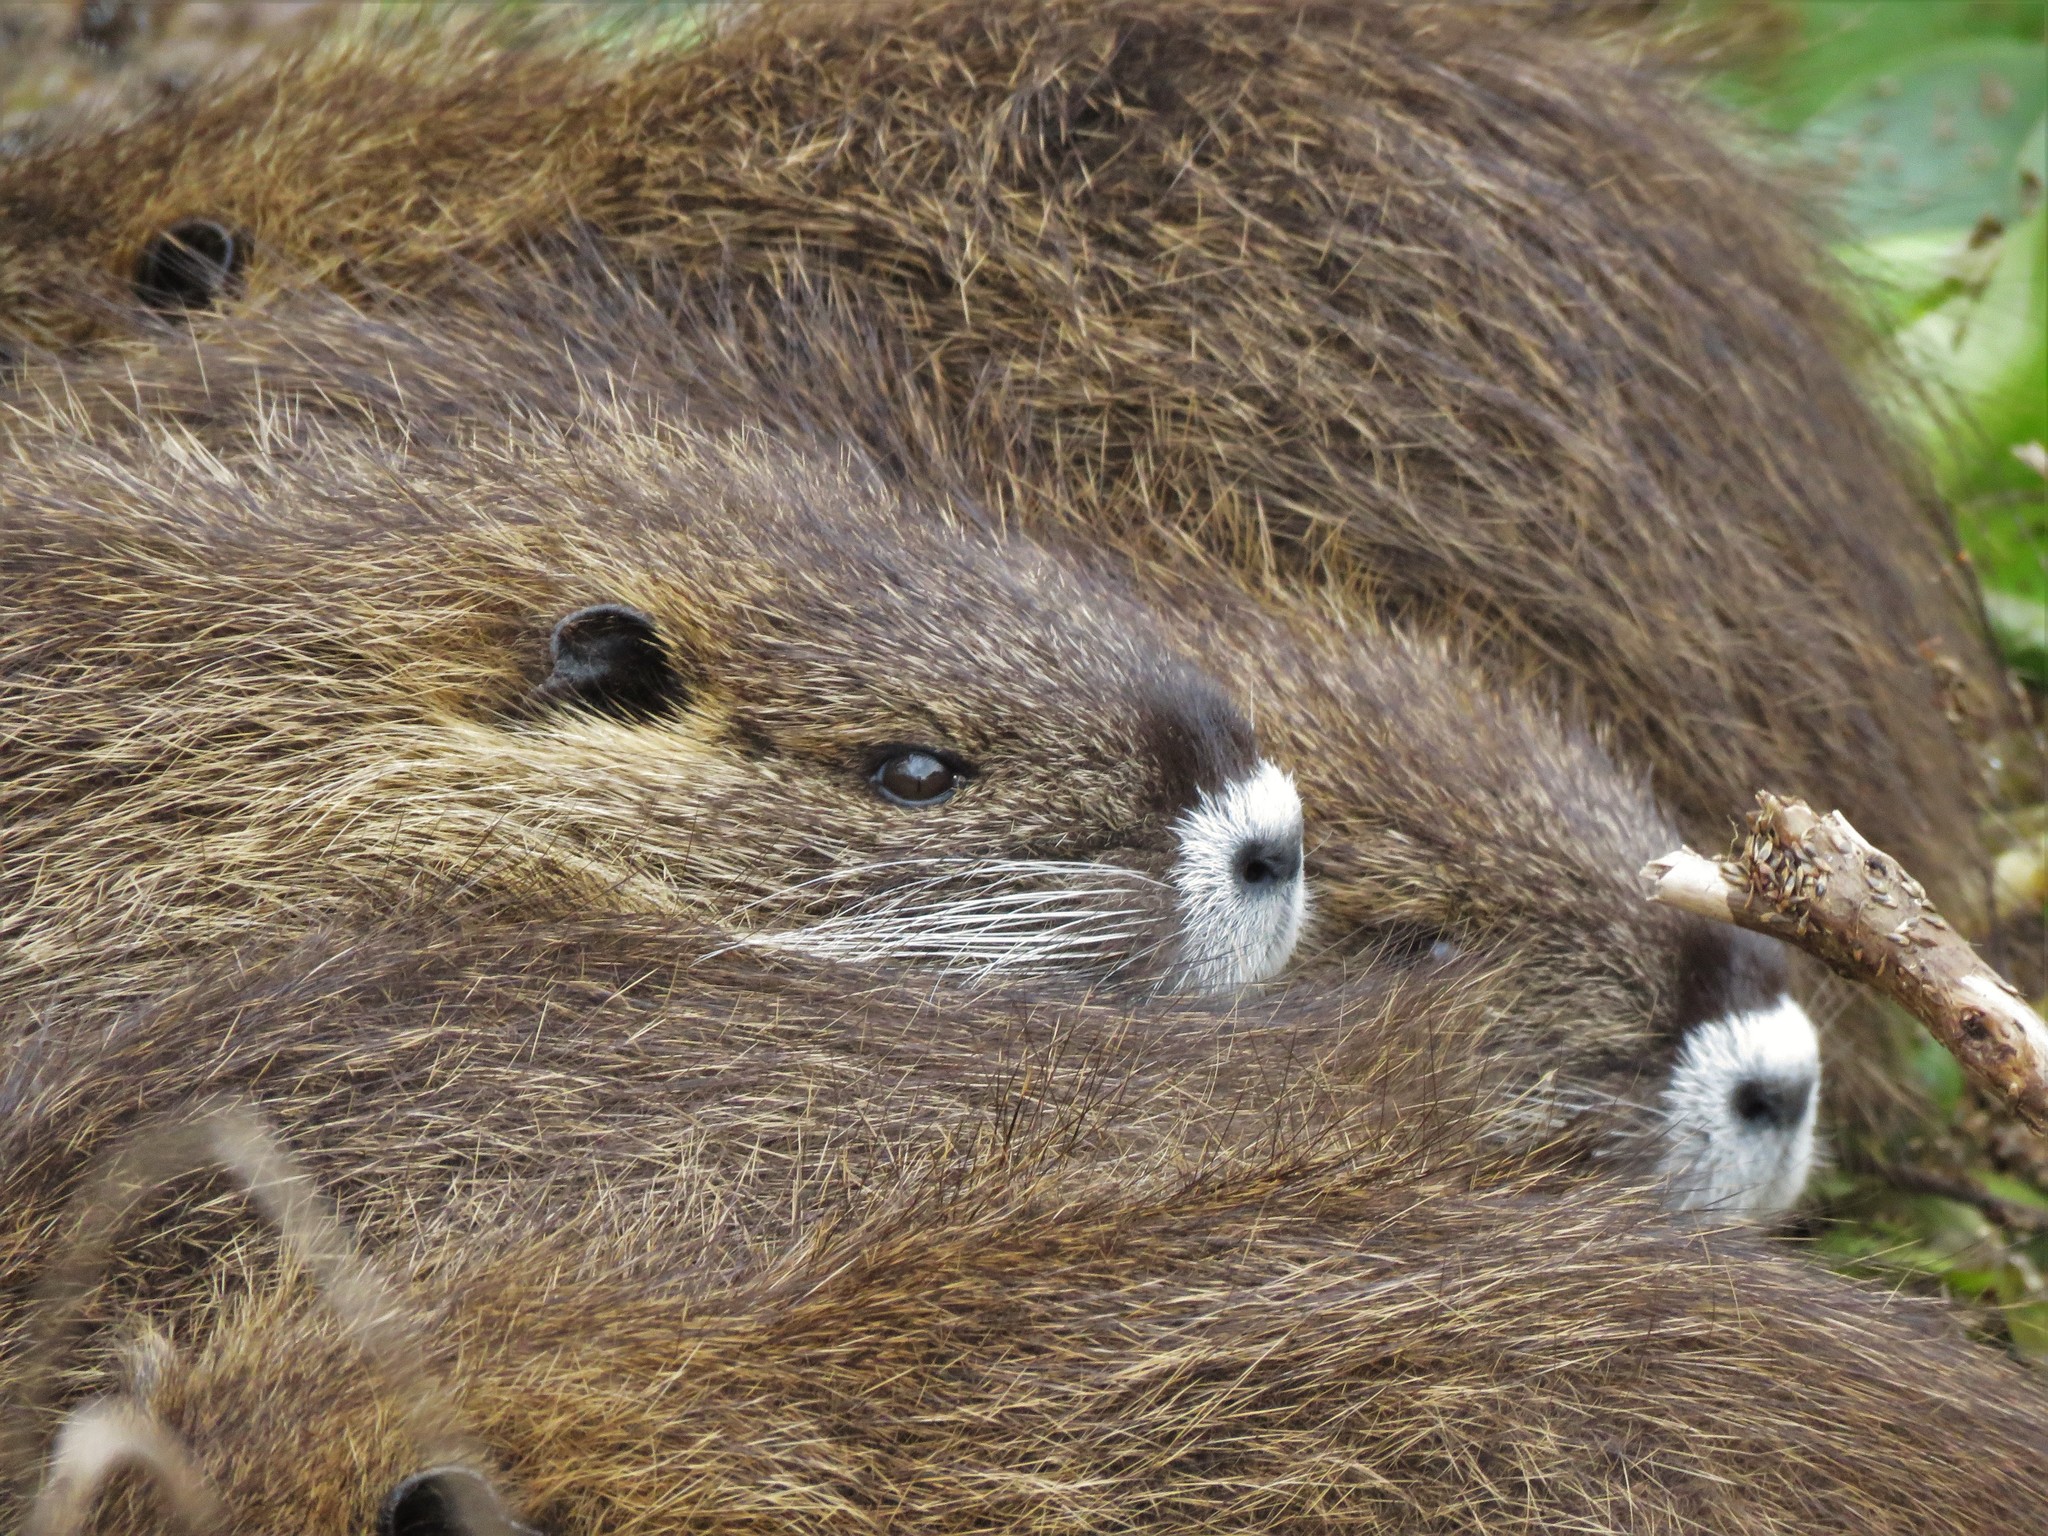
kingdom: Animalia
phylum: Chordata
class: Mammalia
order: Rodentia
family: Myocastoridae
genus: Myocastor
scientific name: Myocastor coypus
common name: Coypu
